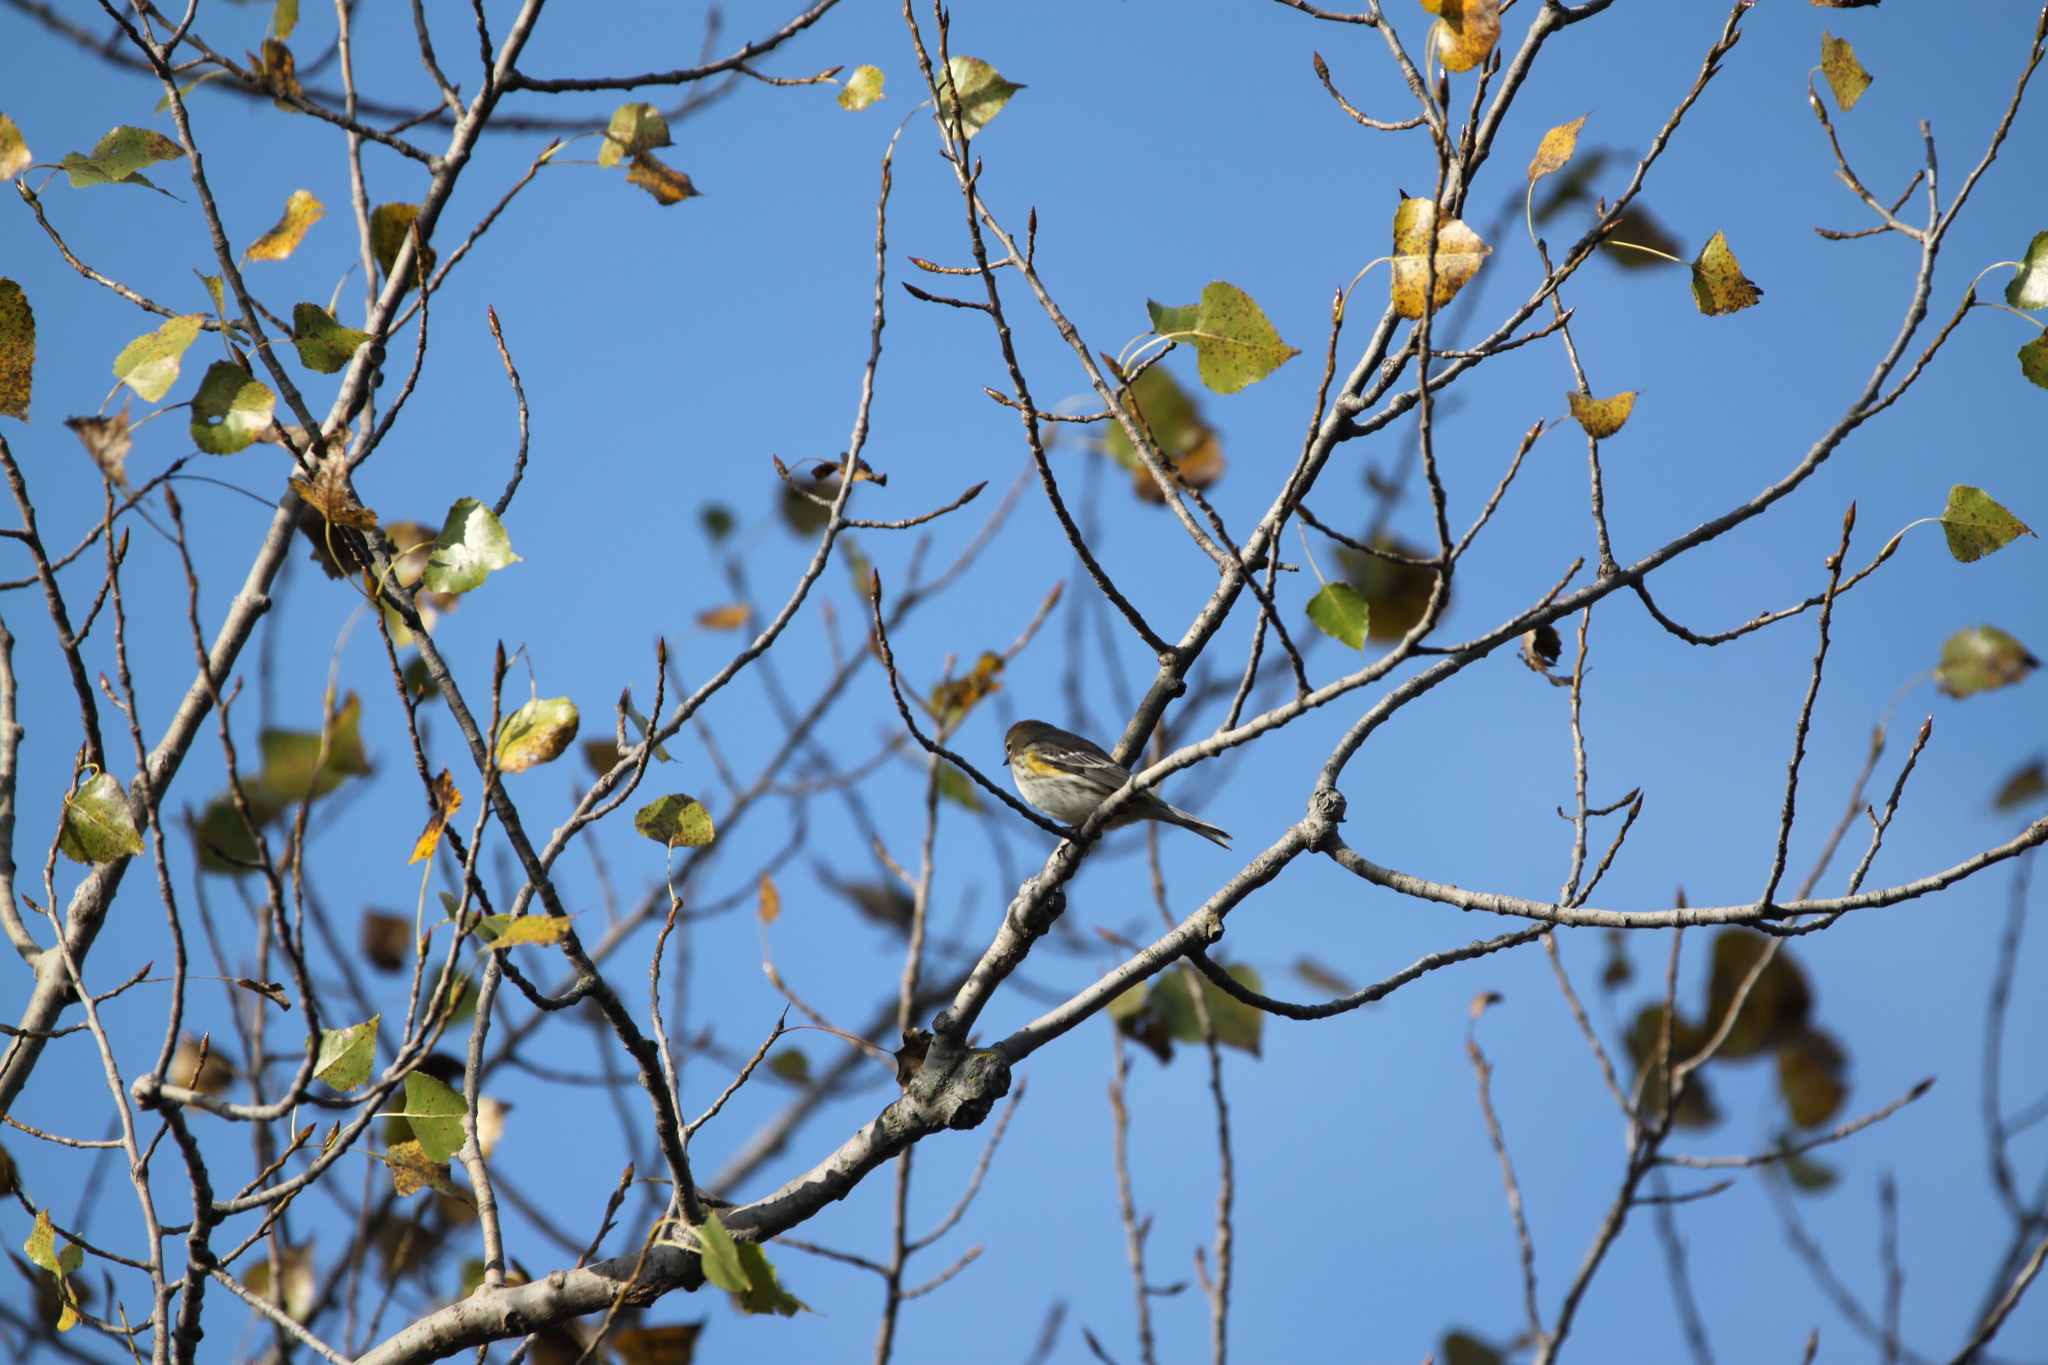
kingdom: Animalia
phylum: Chordata
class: Aves
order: Passeriformes
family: Parulidae
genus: Setophaga
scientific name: Setophaga coronata
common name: Myrtle warbler
